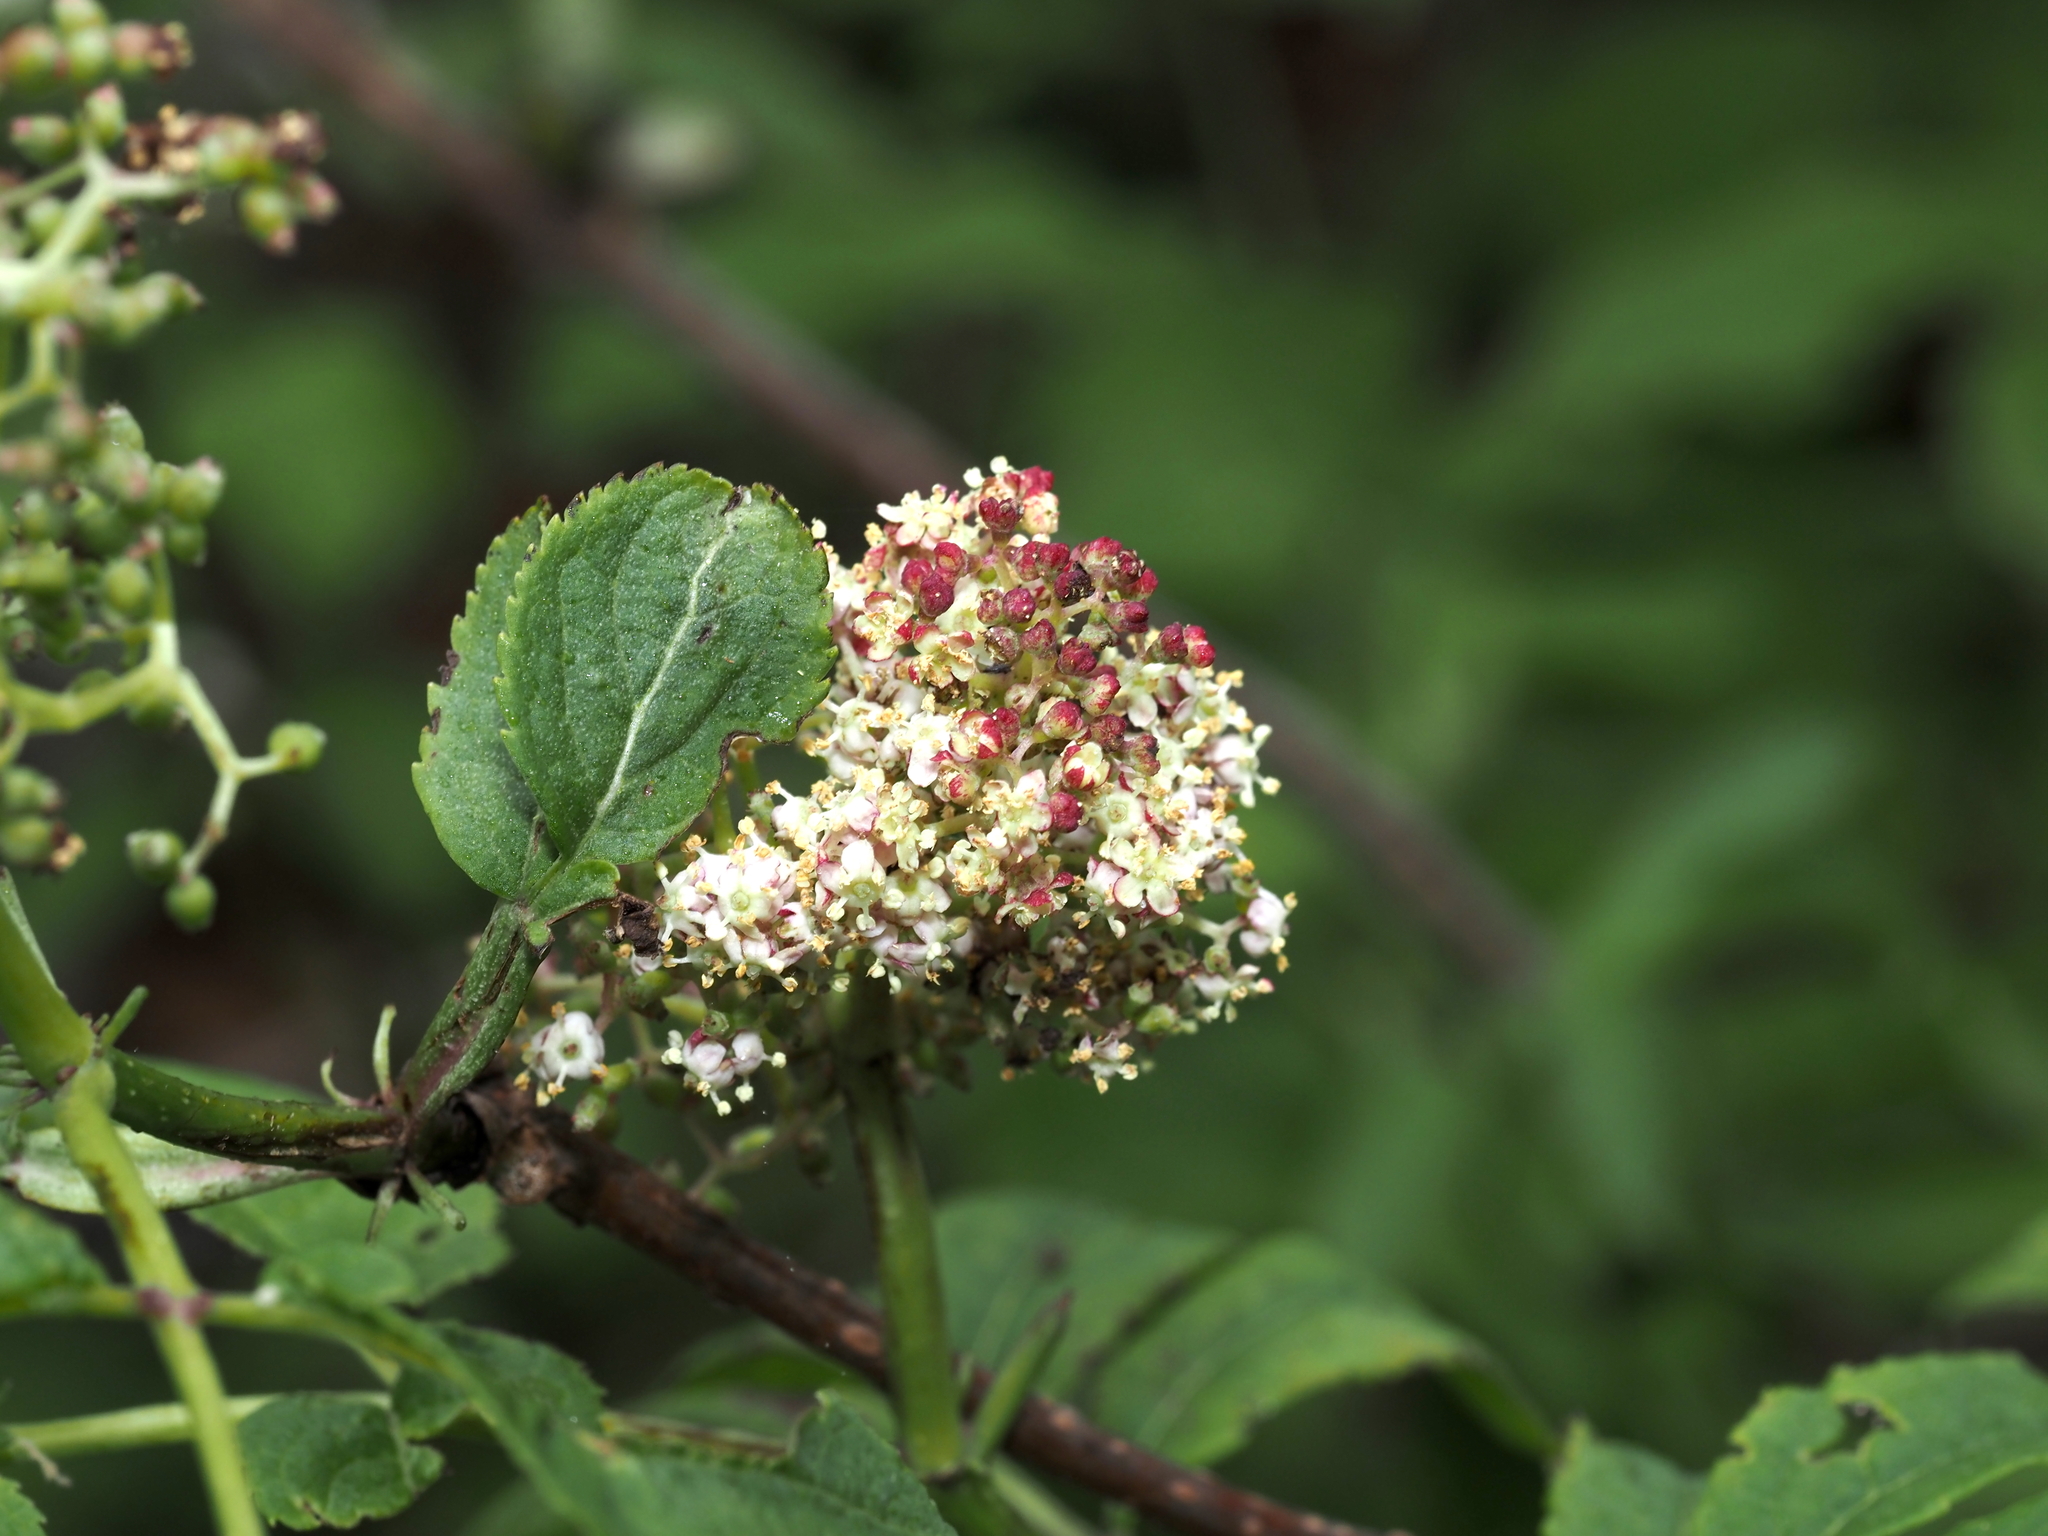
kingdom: Plantae
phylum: Tracheophyta
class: Magnoliopsida
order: Dipsacales
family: Viburnaceae
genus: Sambucus
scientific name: Sambucus racemosa
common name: Red-berried elder
